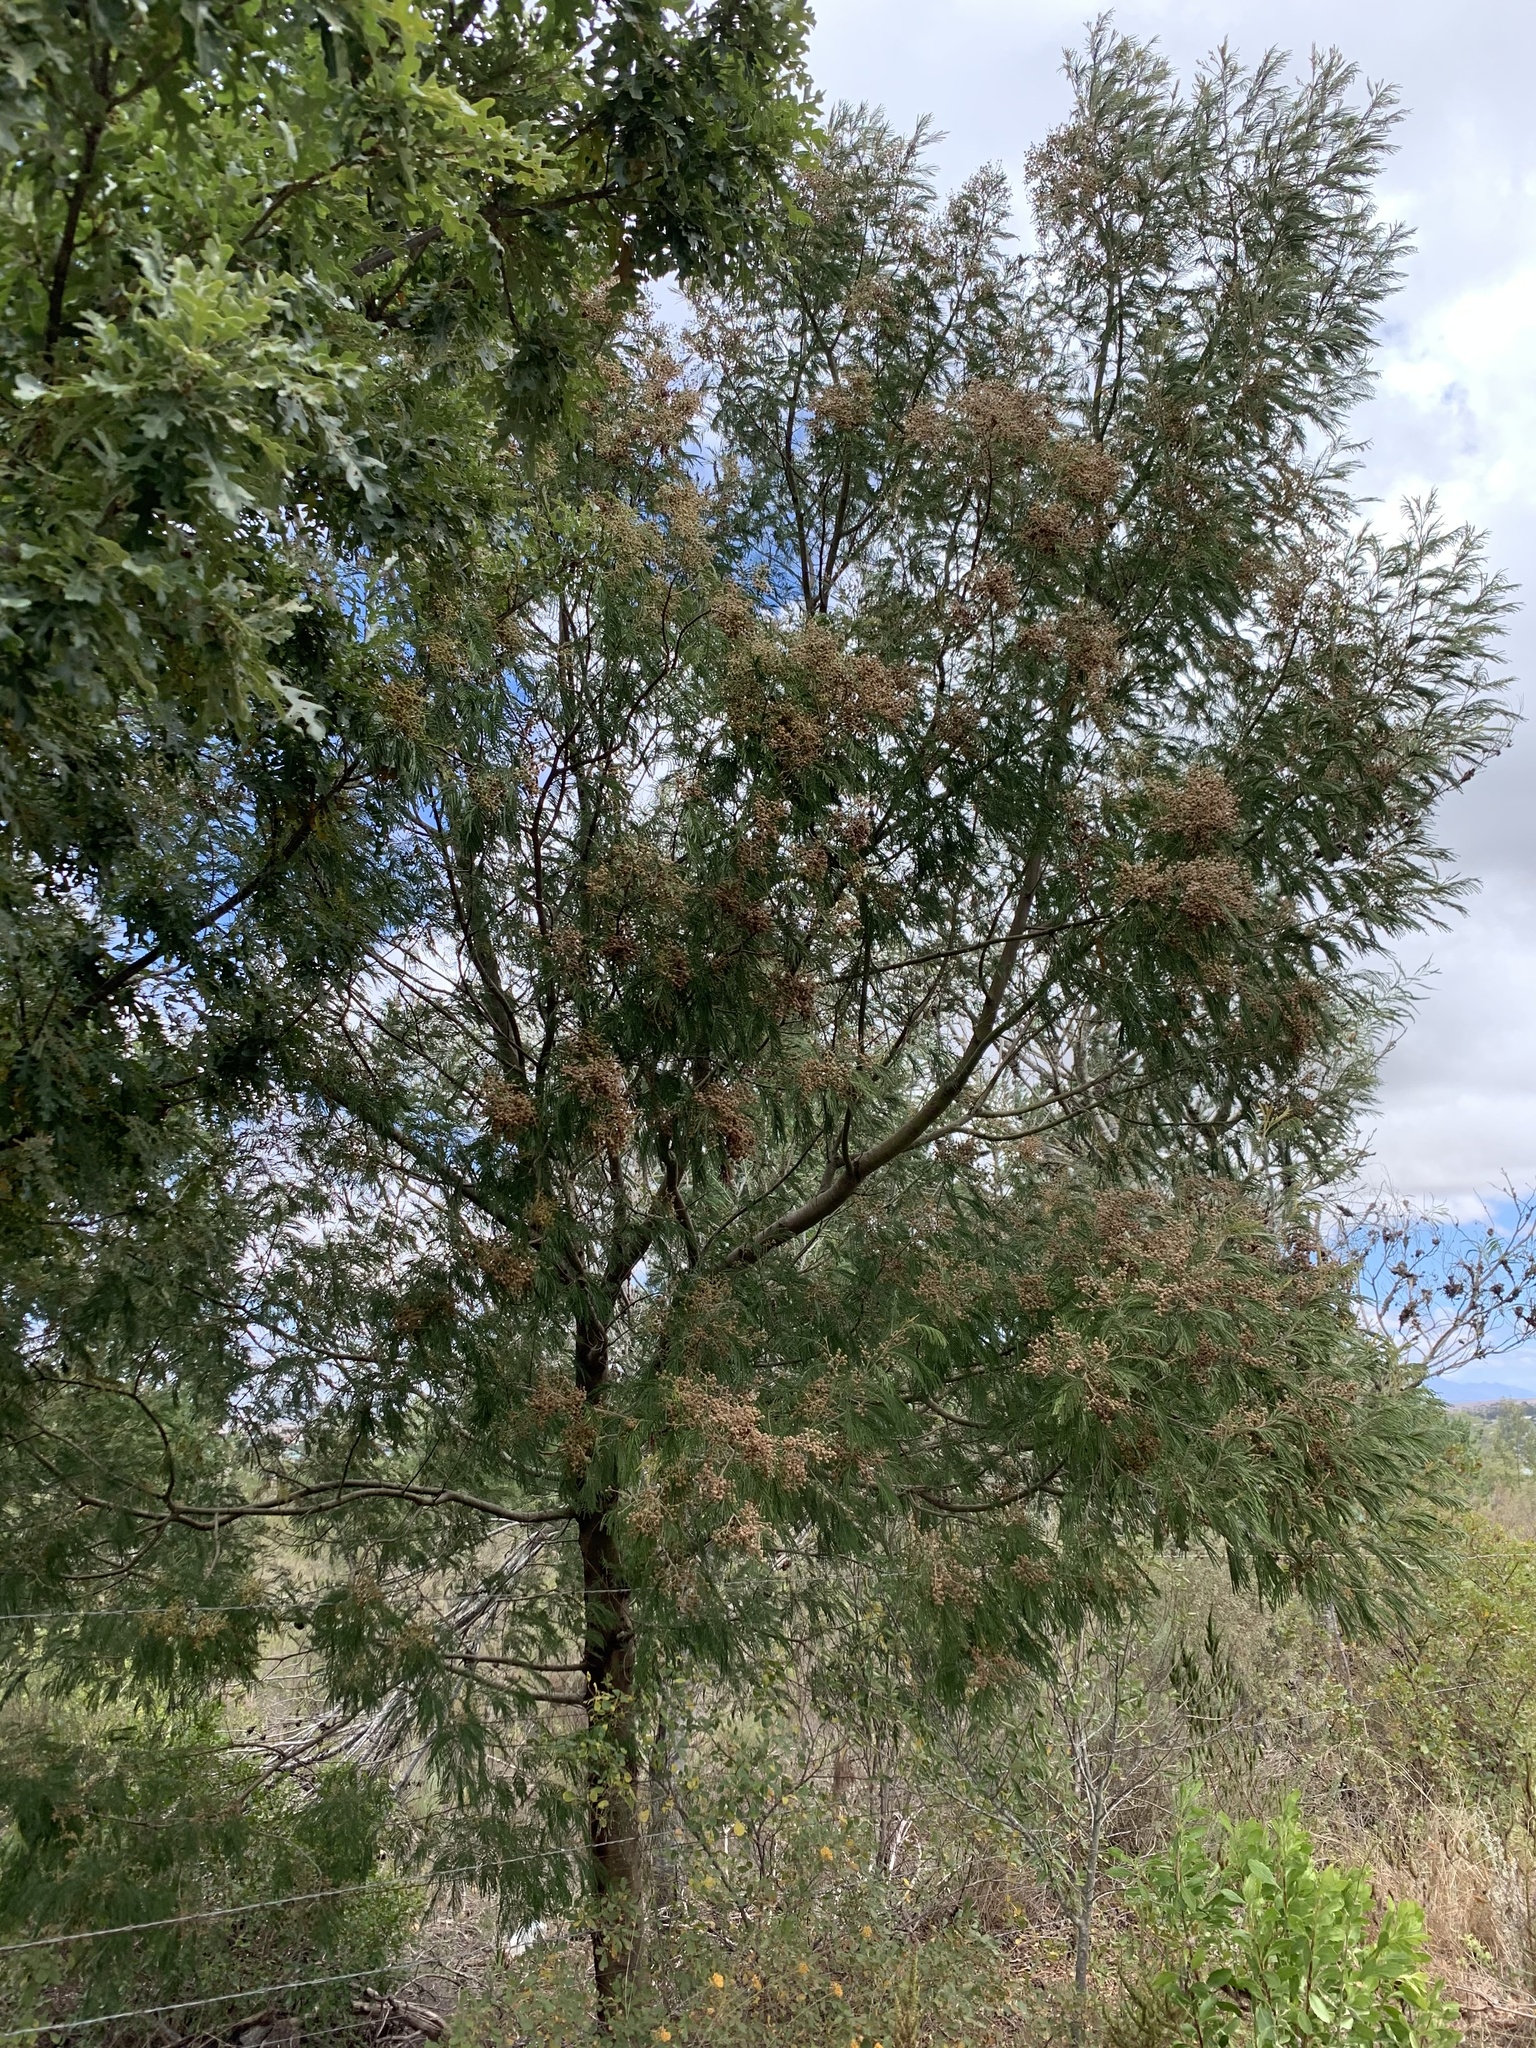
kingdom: Plantae
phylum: Tracheophyta
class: Magnoliopsida
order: Fabales
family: Fabaceae
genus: Acacia
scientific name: Acacia mearnsii
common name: Black wattle
